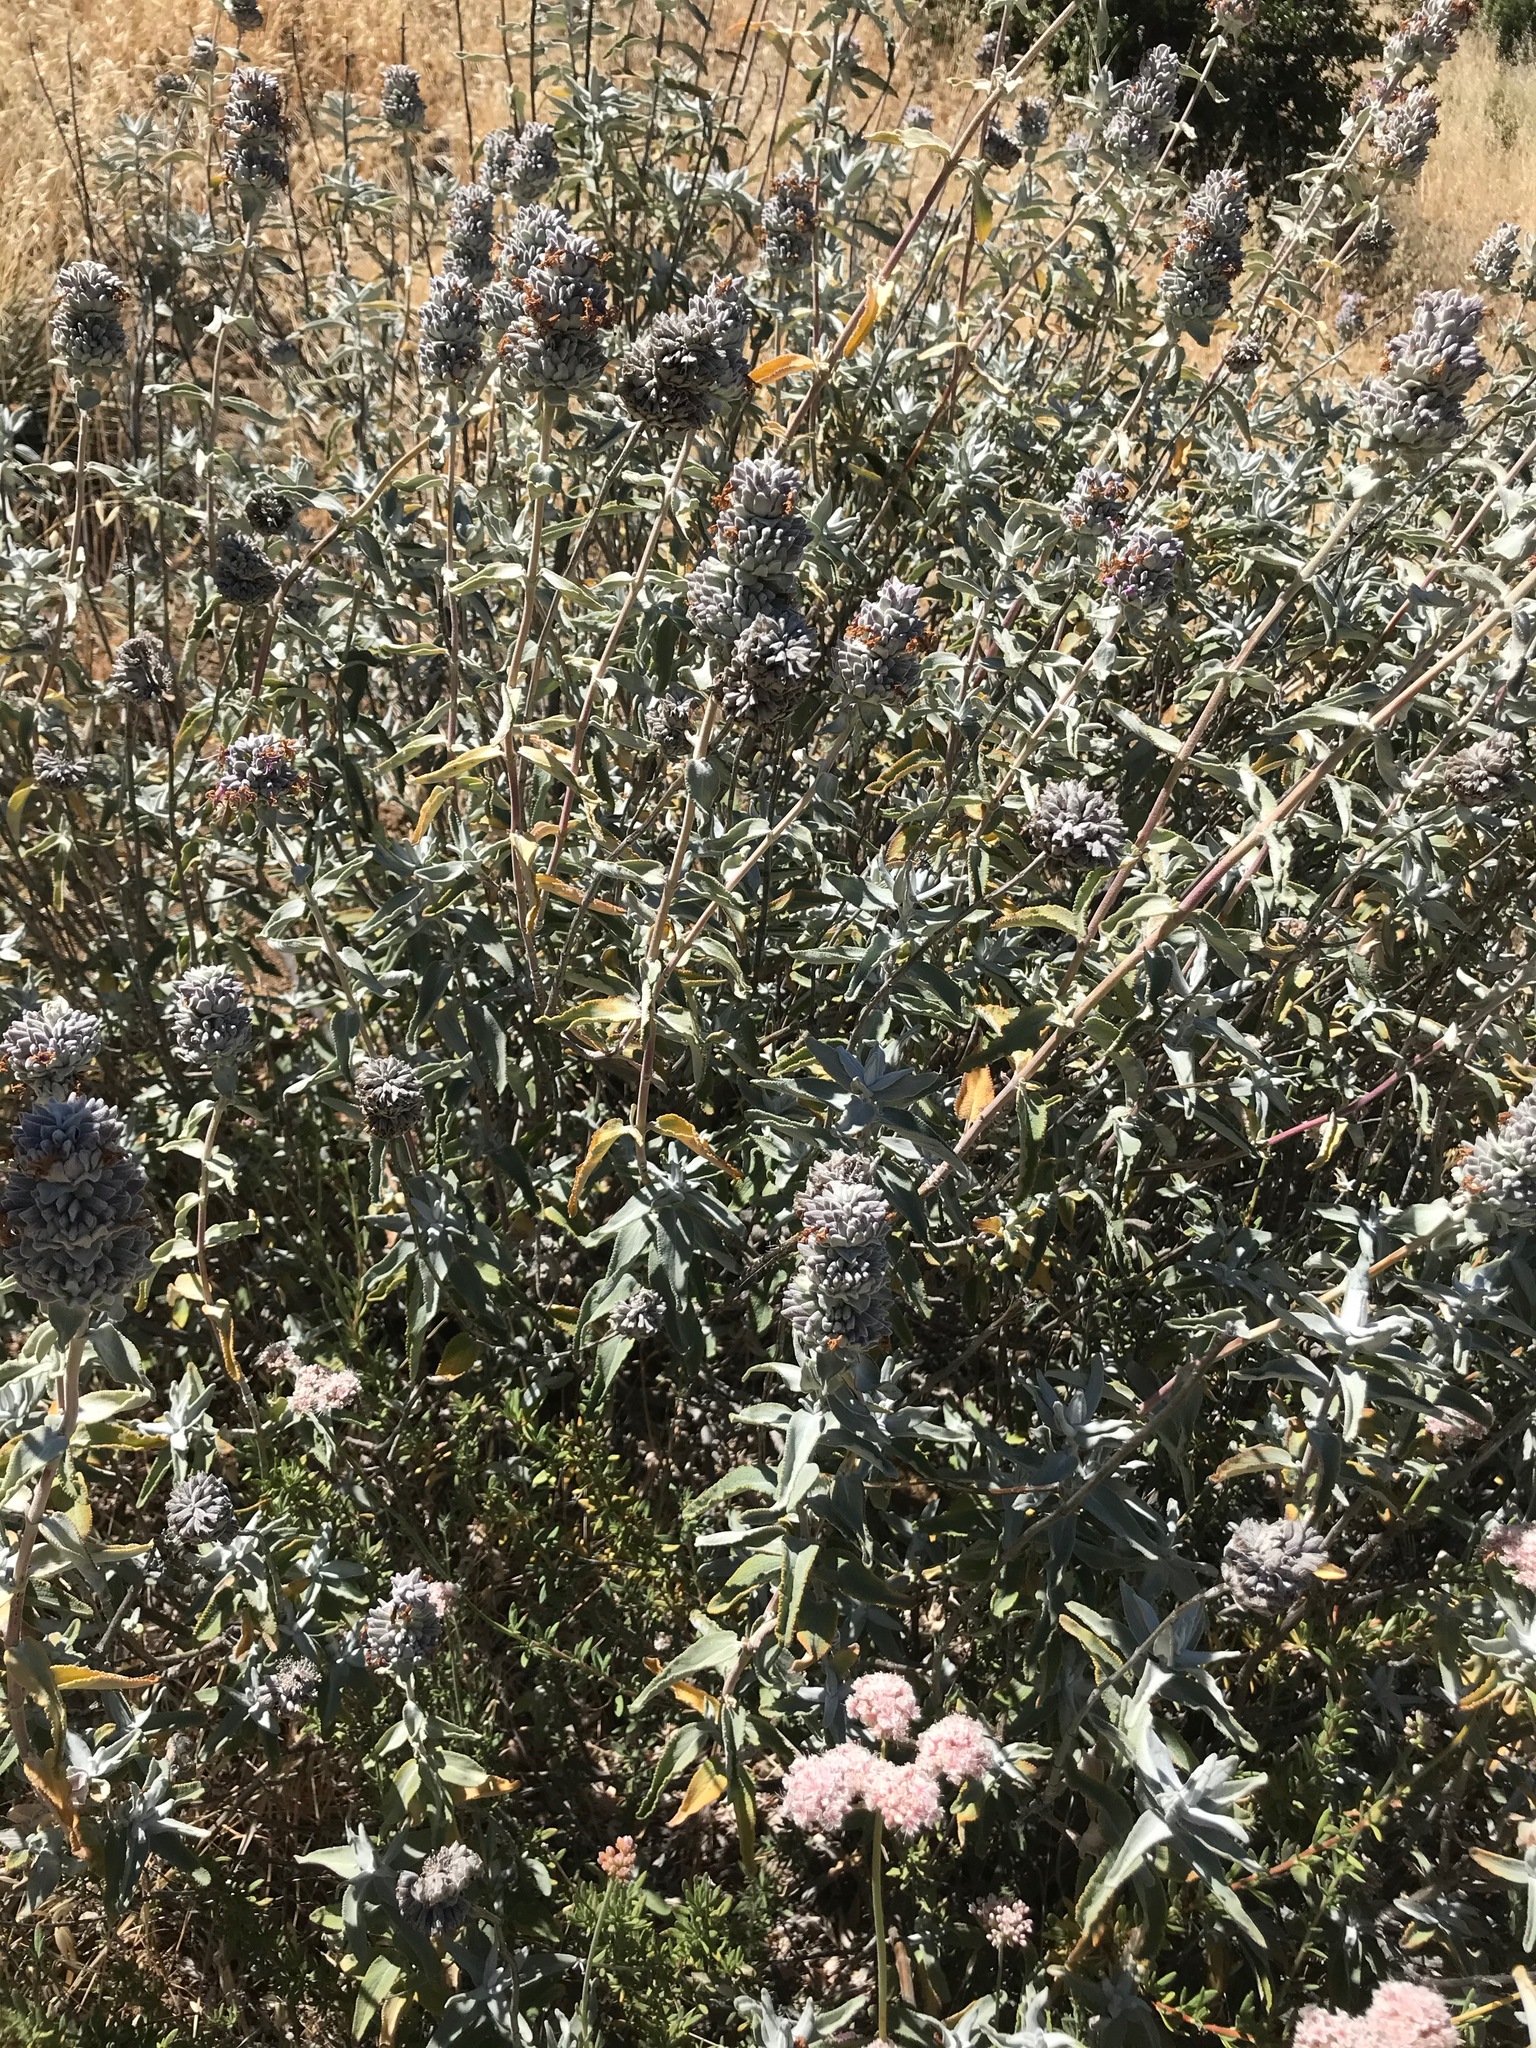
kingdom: Plantae
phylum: Tracheophyta
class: Magnoliopsida
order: Lamiales
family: Lamiaceae
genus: Salvia
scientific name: Salvia leucophylla
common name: Purple sage
